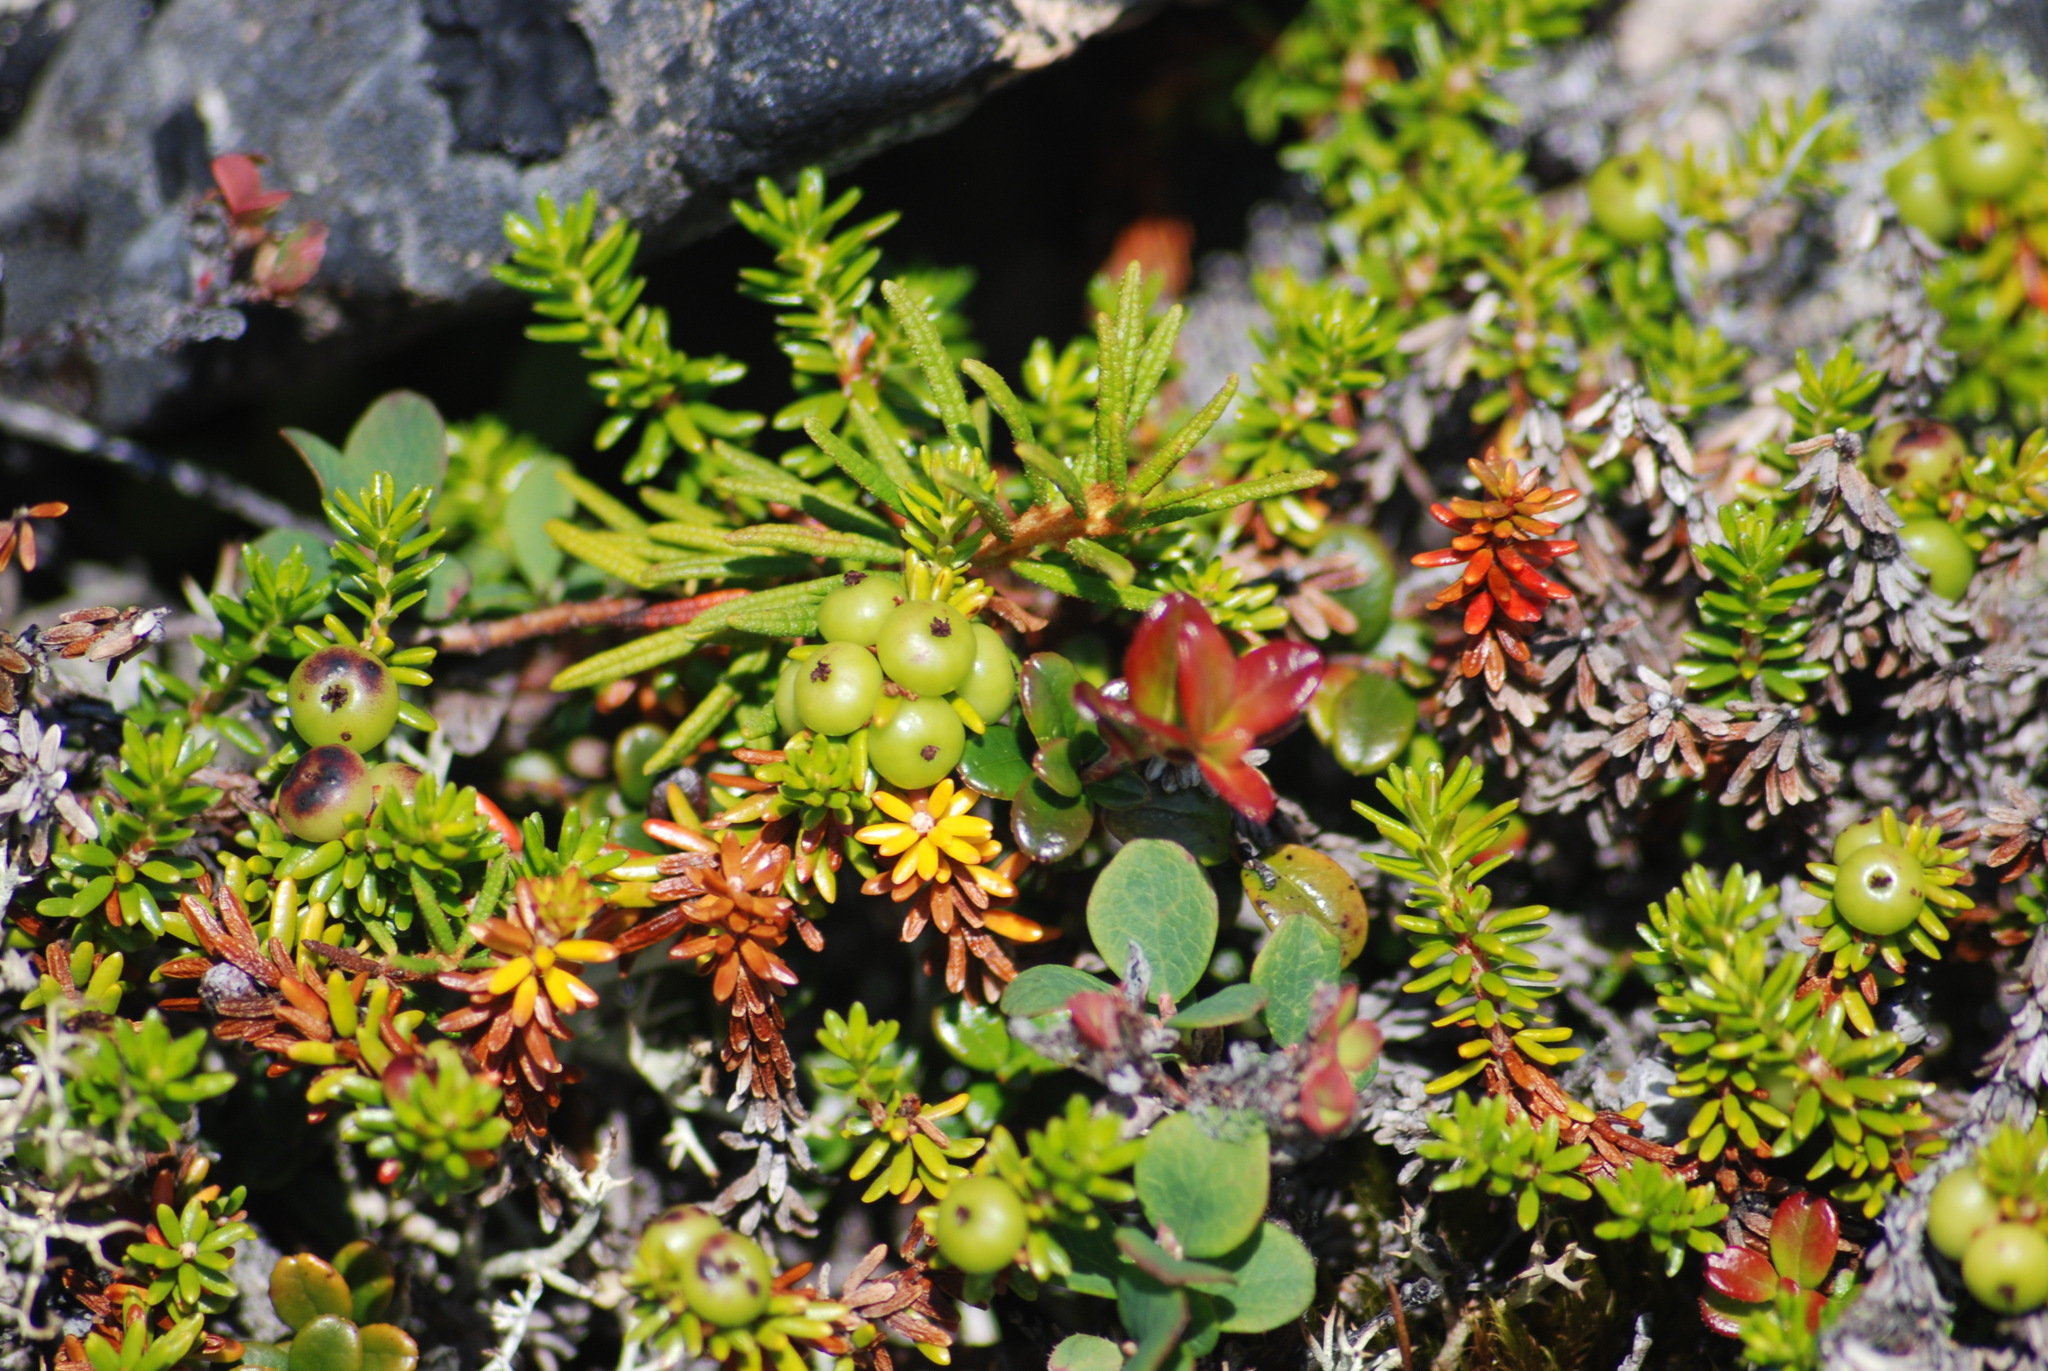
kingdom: Plantae
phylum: Tracheophyta
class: Magnoliopsida
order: Ericales
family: Ericaceae
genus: Empetrum
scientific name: Empetrum nigrum
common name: Black crowberry
